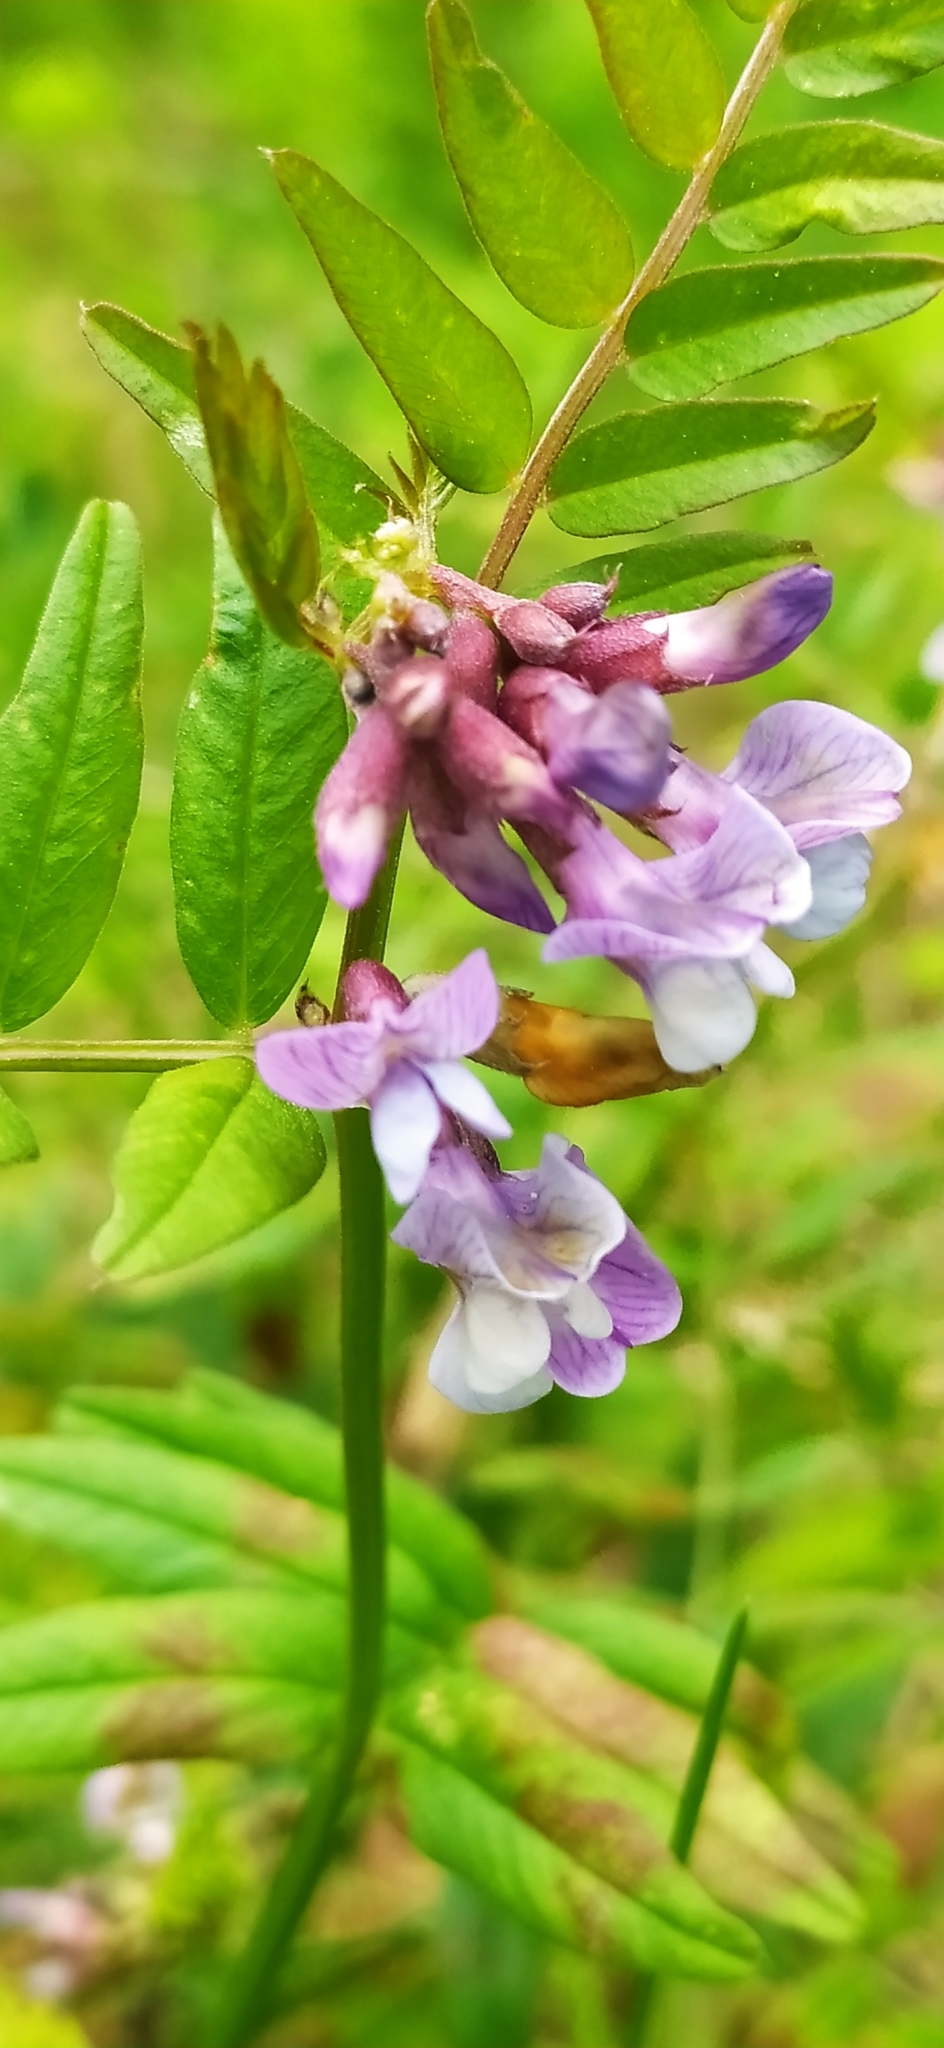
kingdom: Plantae
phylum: Tracheophyta
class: Magnoliopsida
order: Fabales
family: Fabaceae
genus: Vicia
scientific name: Vicia sepium
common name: Bush vetch
